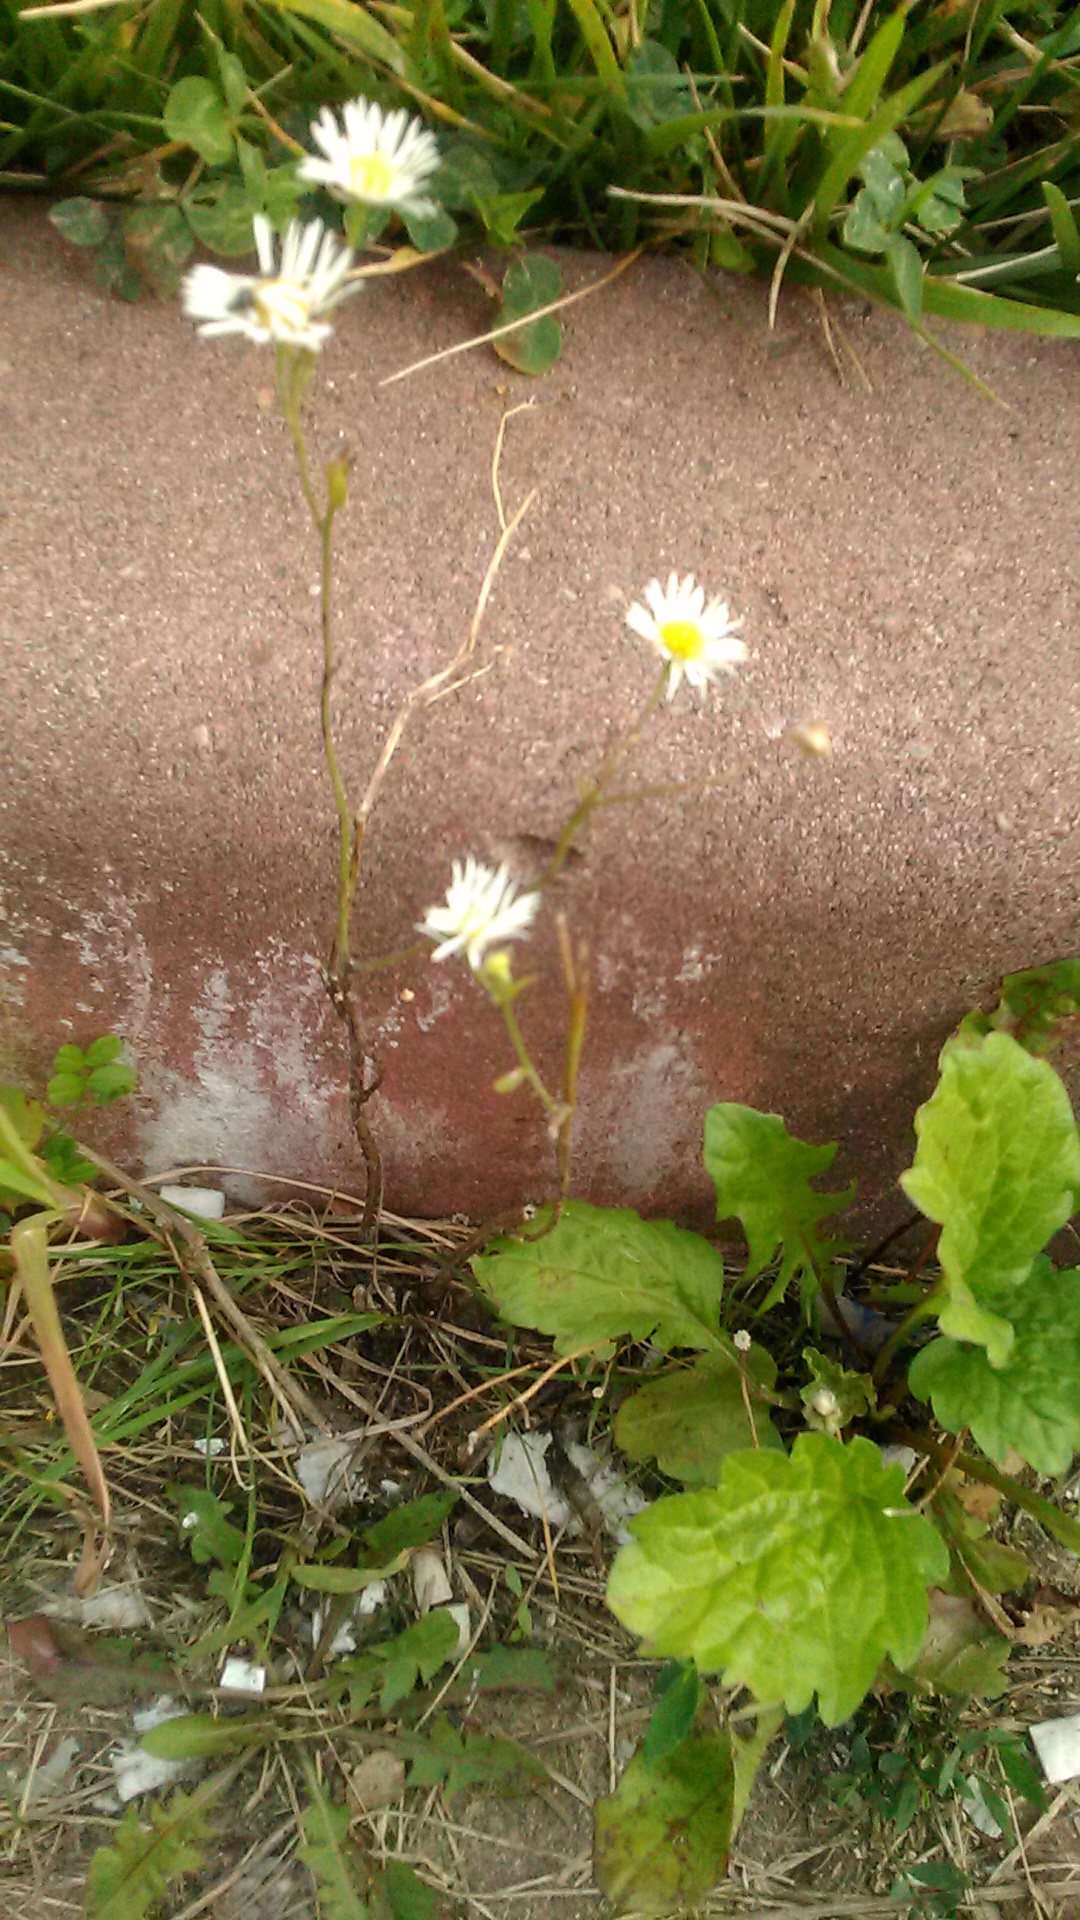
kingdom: Plantae
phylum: Tracheophyta
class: Magnoliopsida
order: Asterales
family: Asteraceae
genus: Erigeron
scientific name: Erigeron annuus
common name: Tall fleabane
